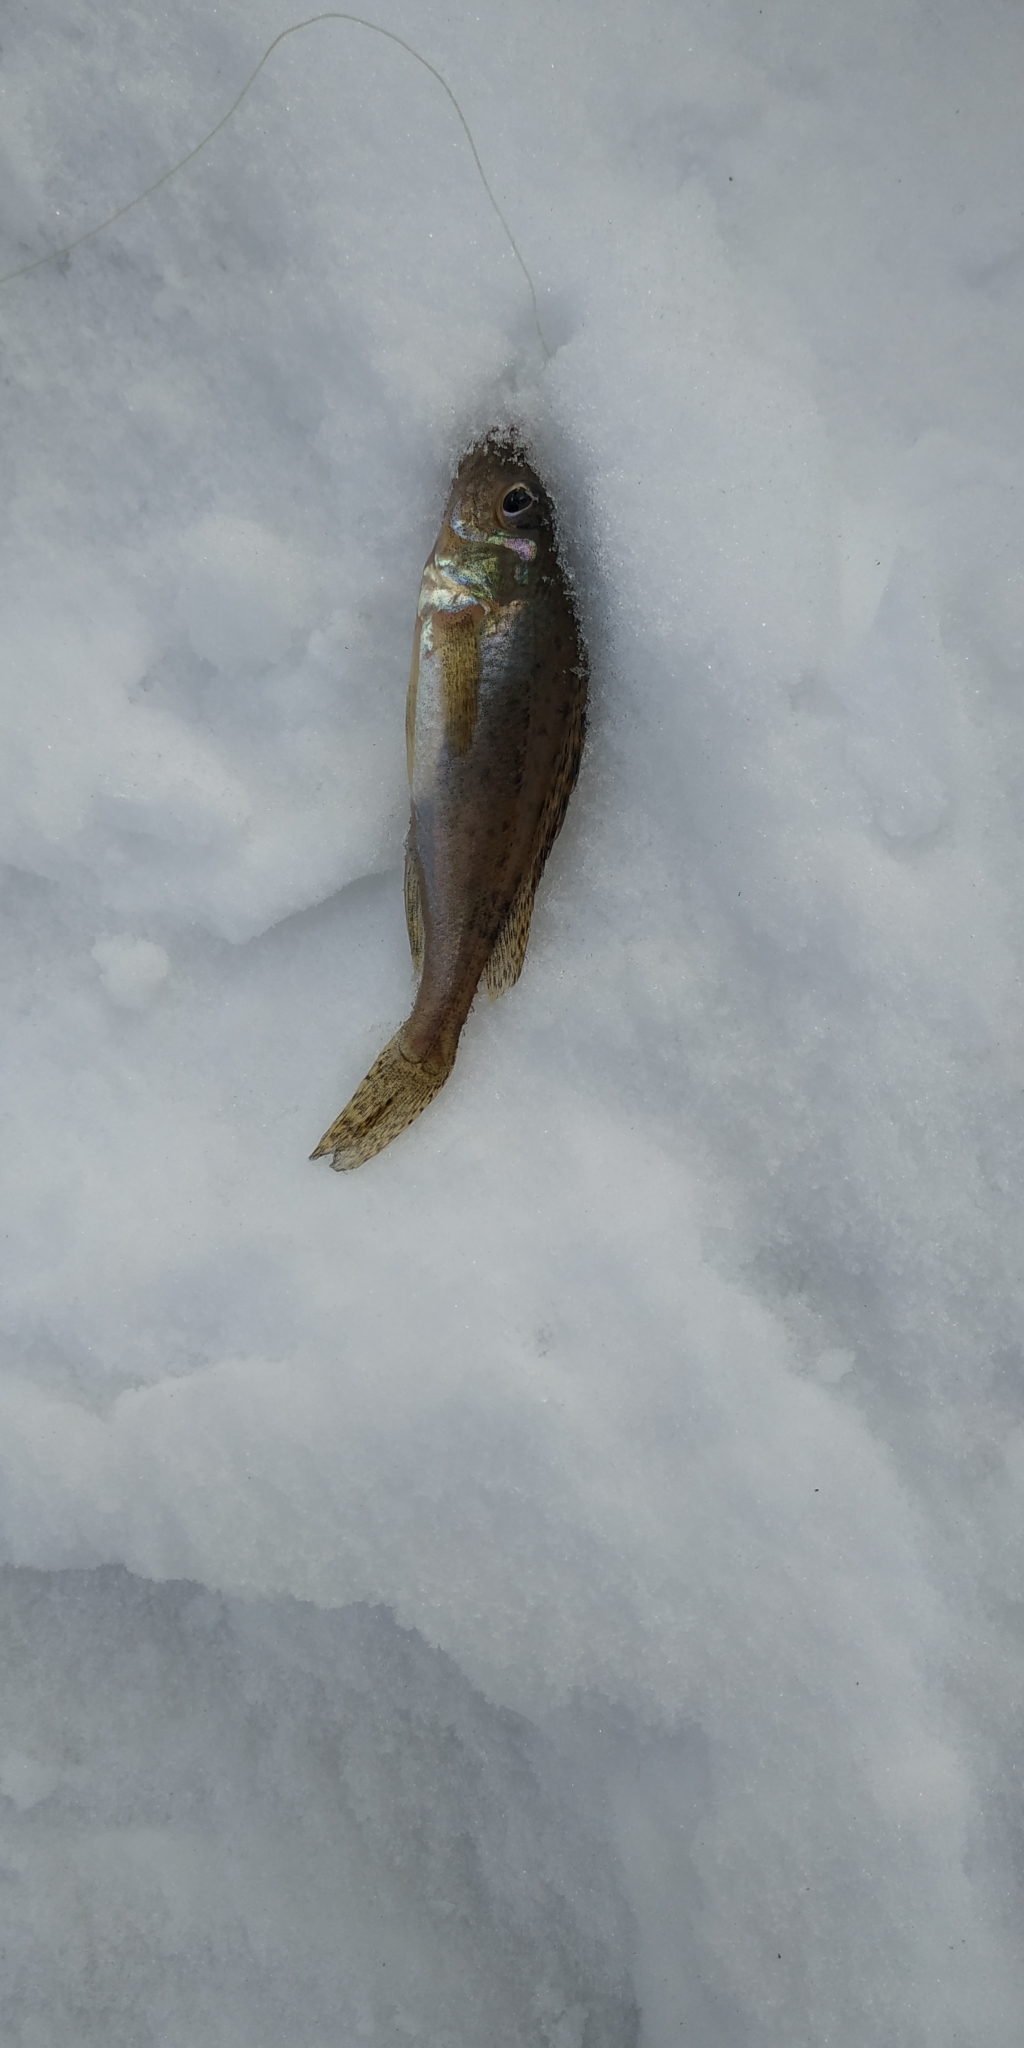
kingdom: Animalia
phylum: Chordata
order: Perciformes
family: Percidae
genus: Gymnocephalus
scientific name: Gymnocephalus cernua
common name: Ruffe
